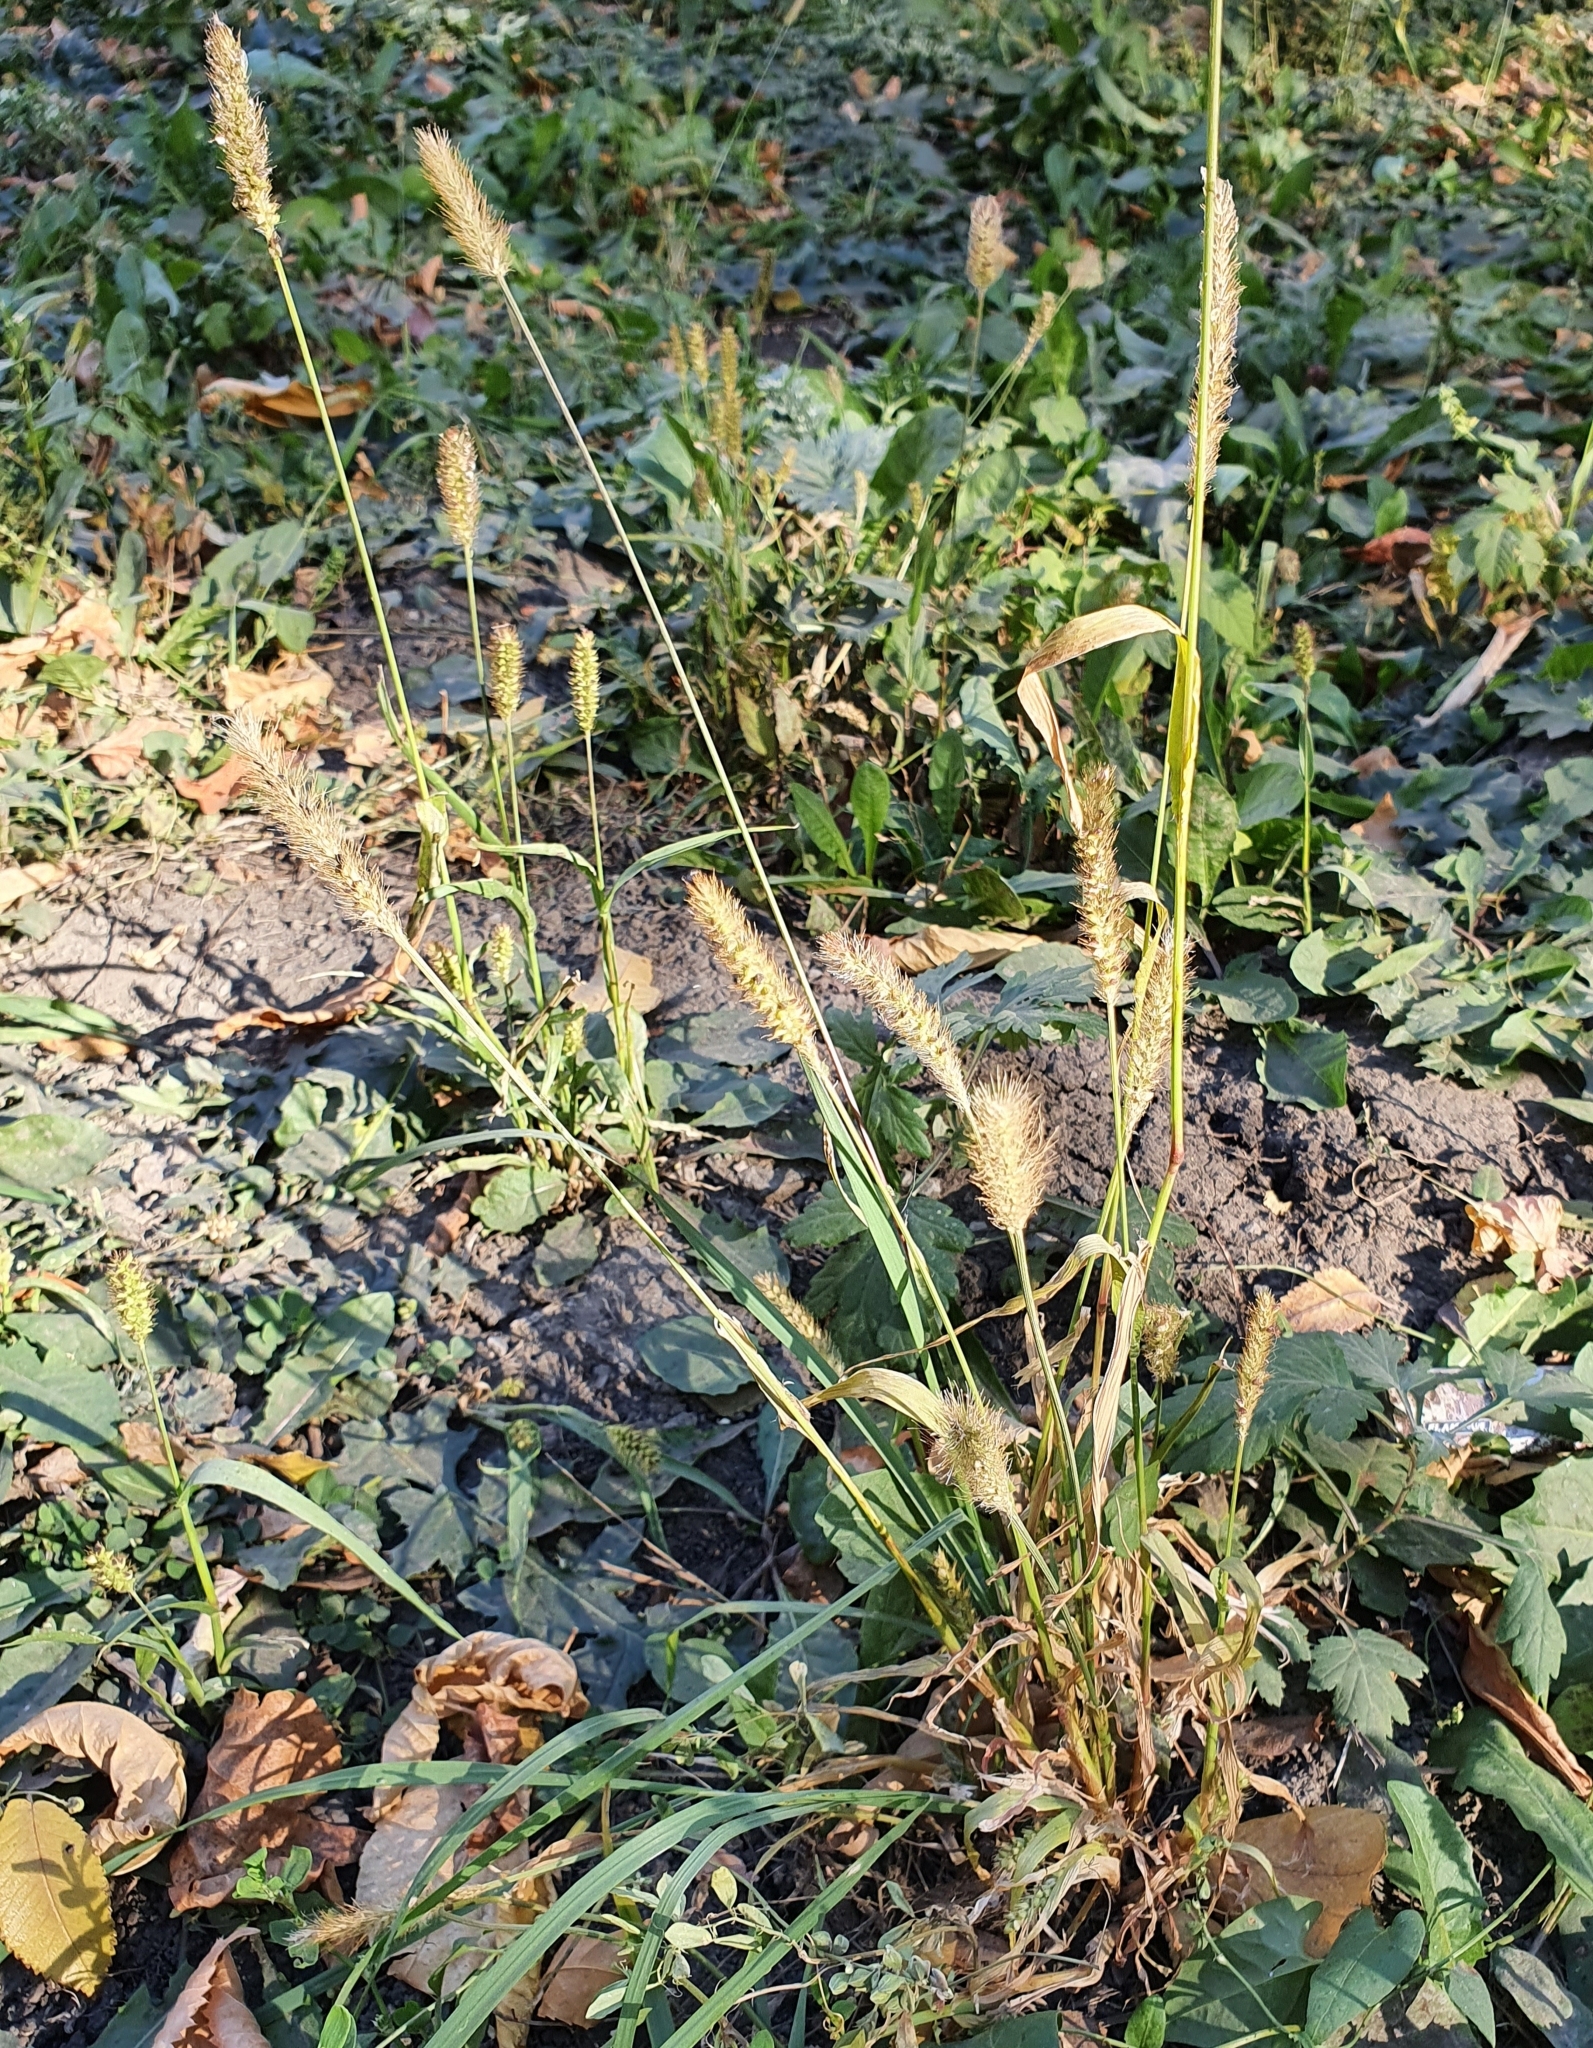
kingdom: Plantae
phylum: Tracheophyta
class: Liliopsida
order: Poales
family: Poaceae
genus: Setaria
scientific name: Setaria pumila
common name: Yellow bristle-grass
